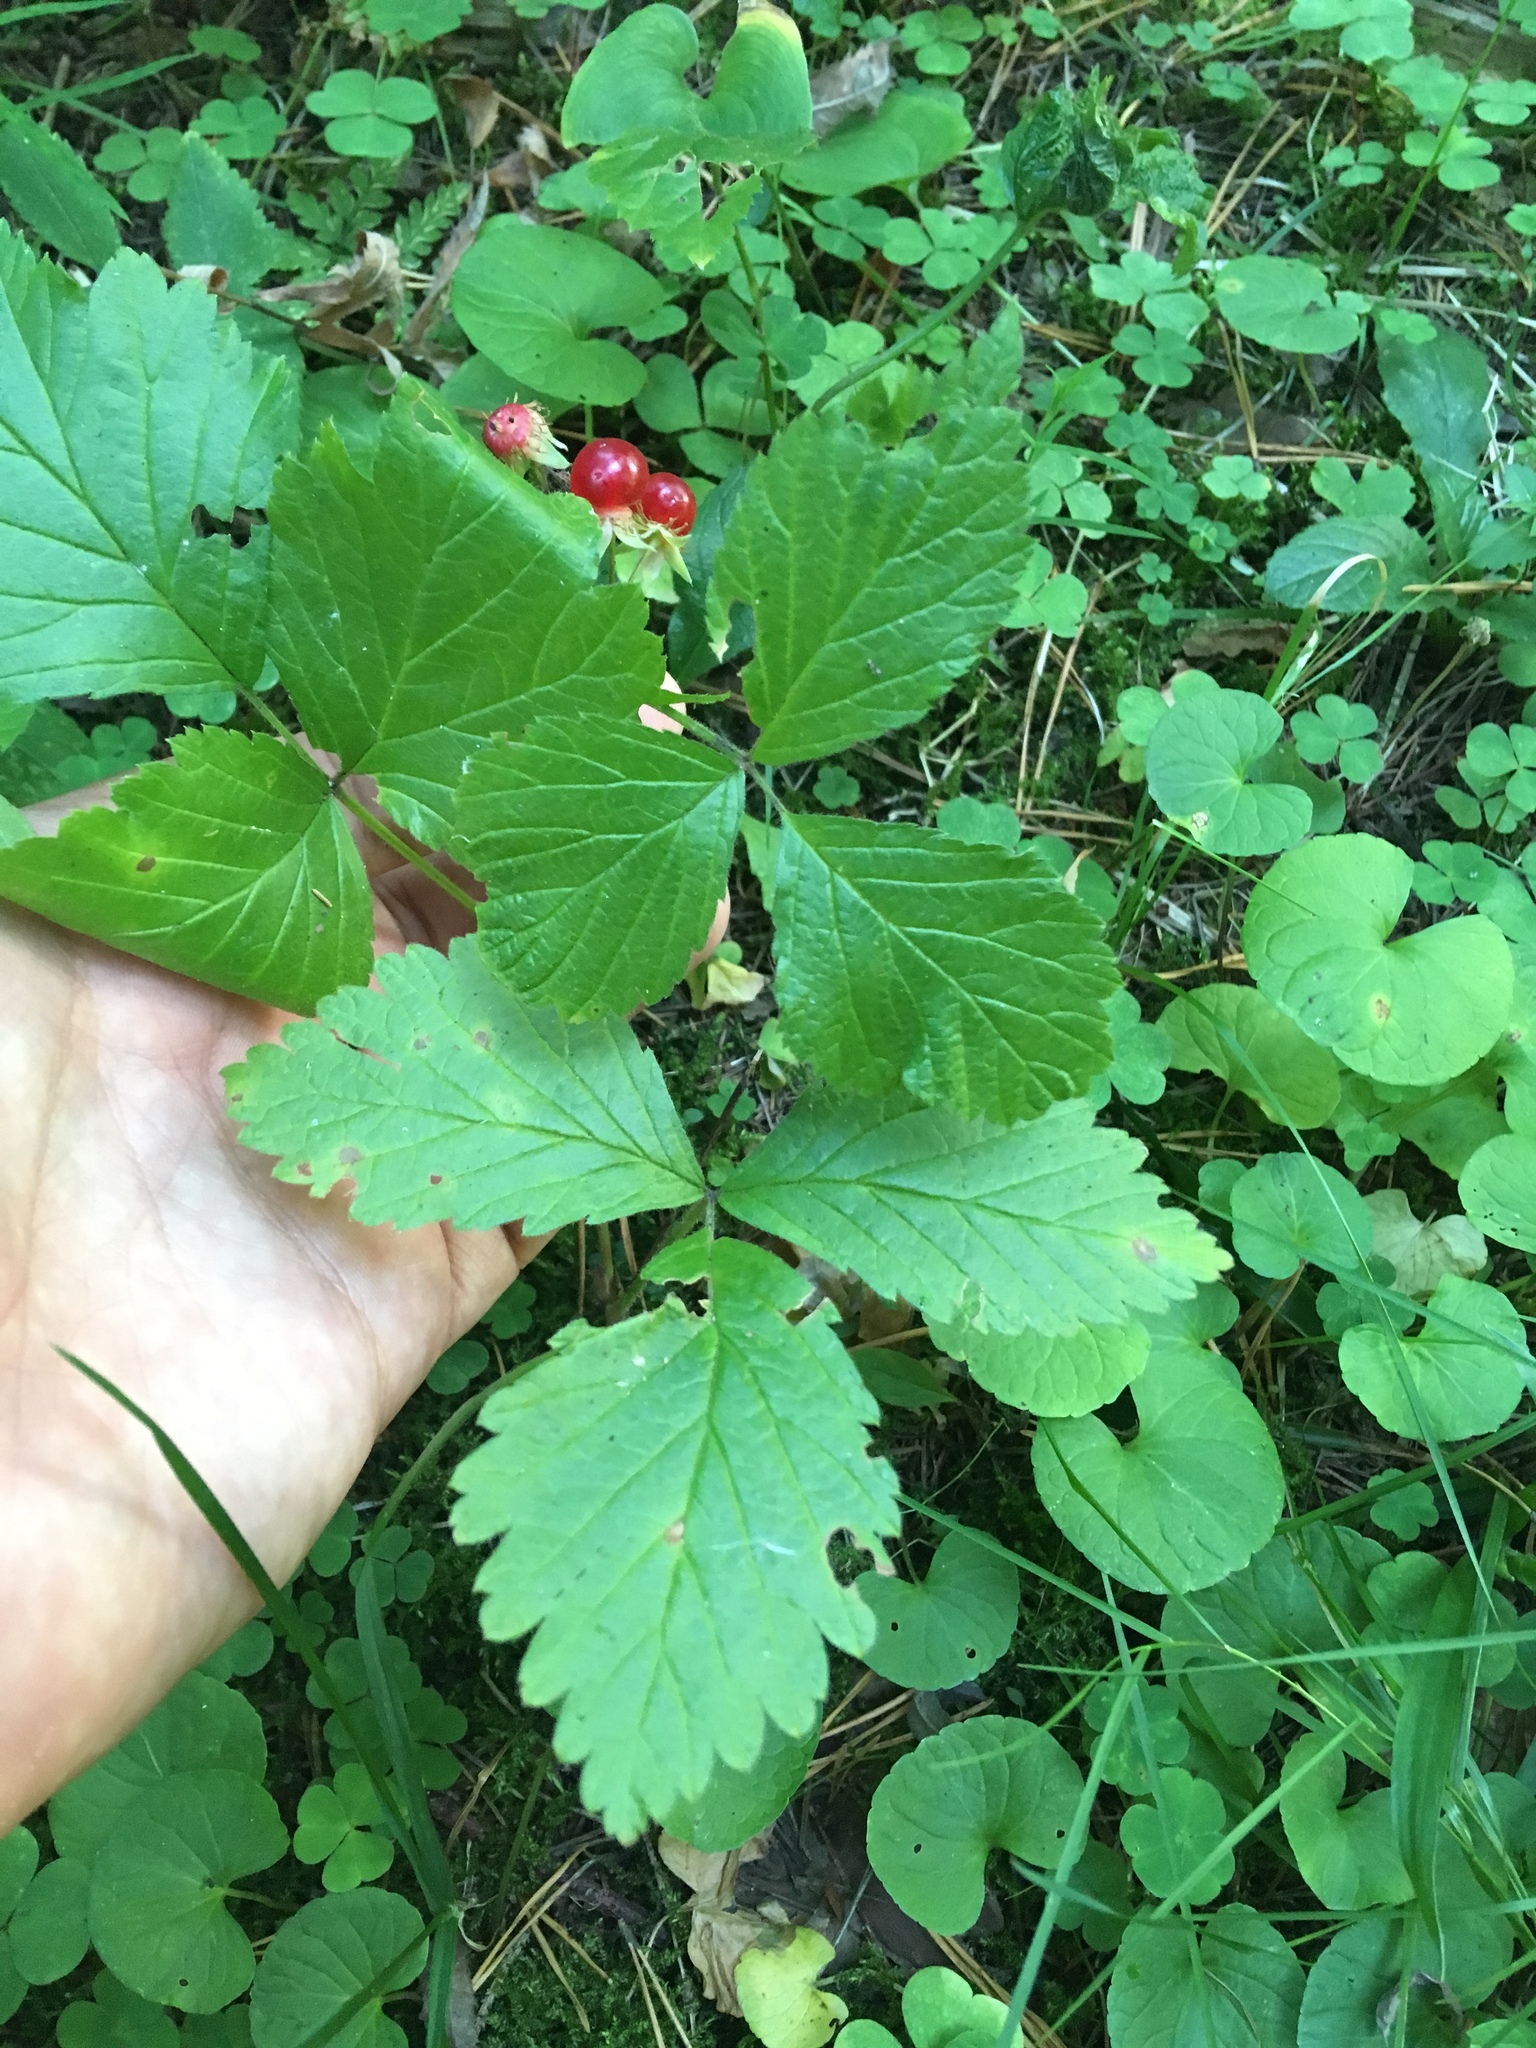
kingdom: Plantae
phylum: Tracheophyta
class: Magnoliopsida
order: Rosales
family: Rosaceae
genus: Rubus
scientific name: Rubus saxatilis
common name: Stone bramble
